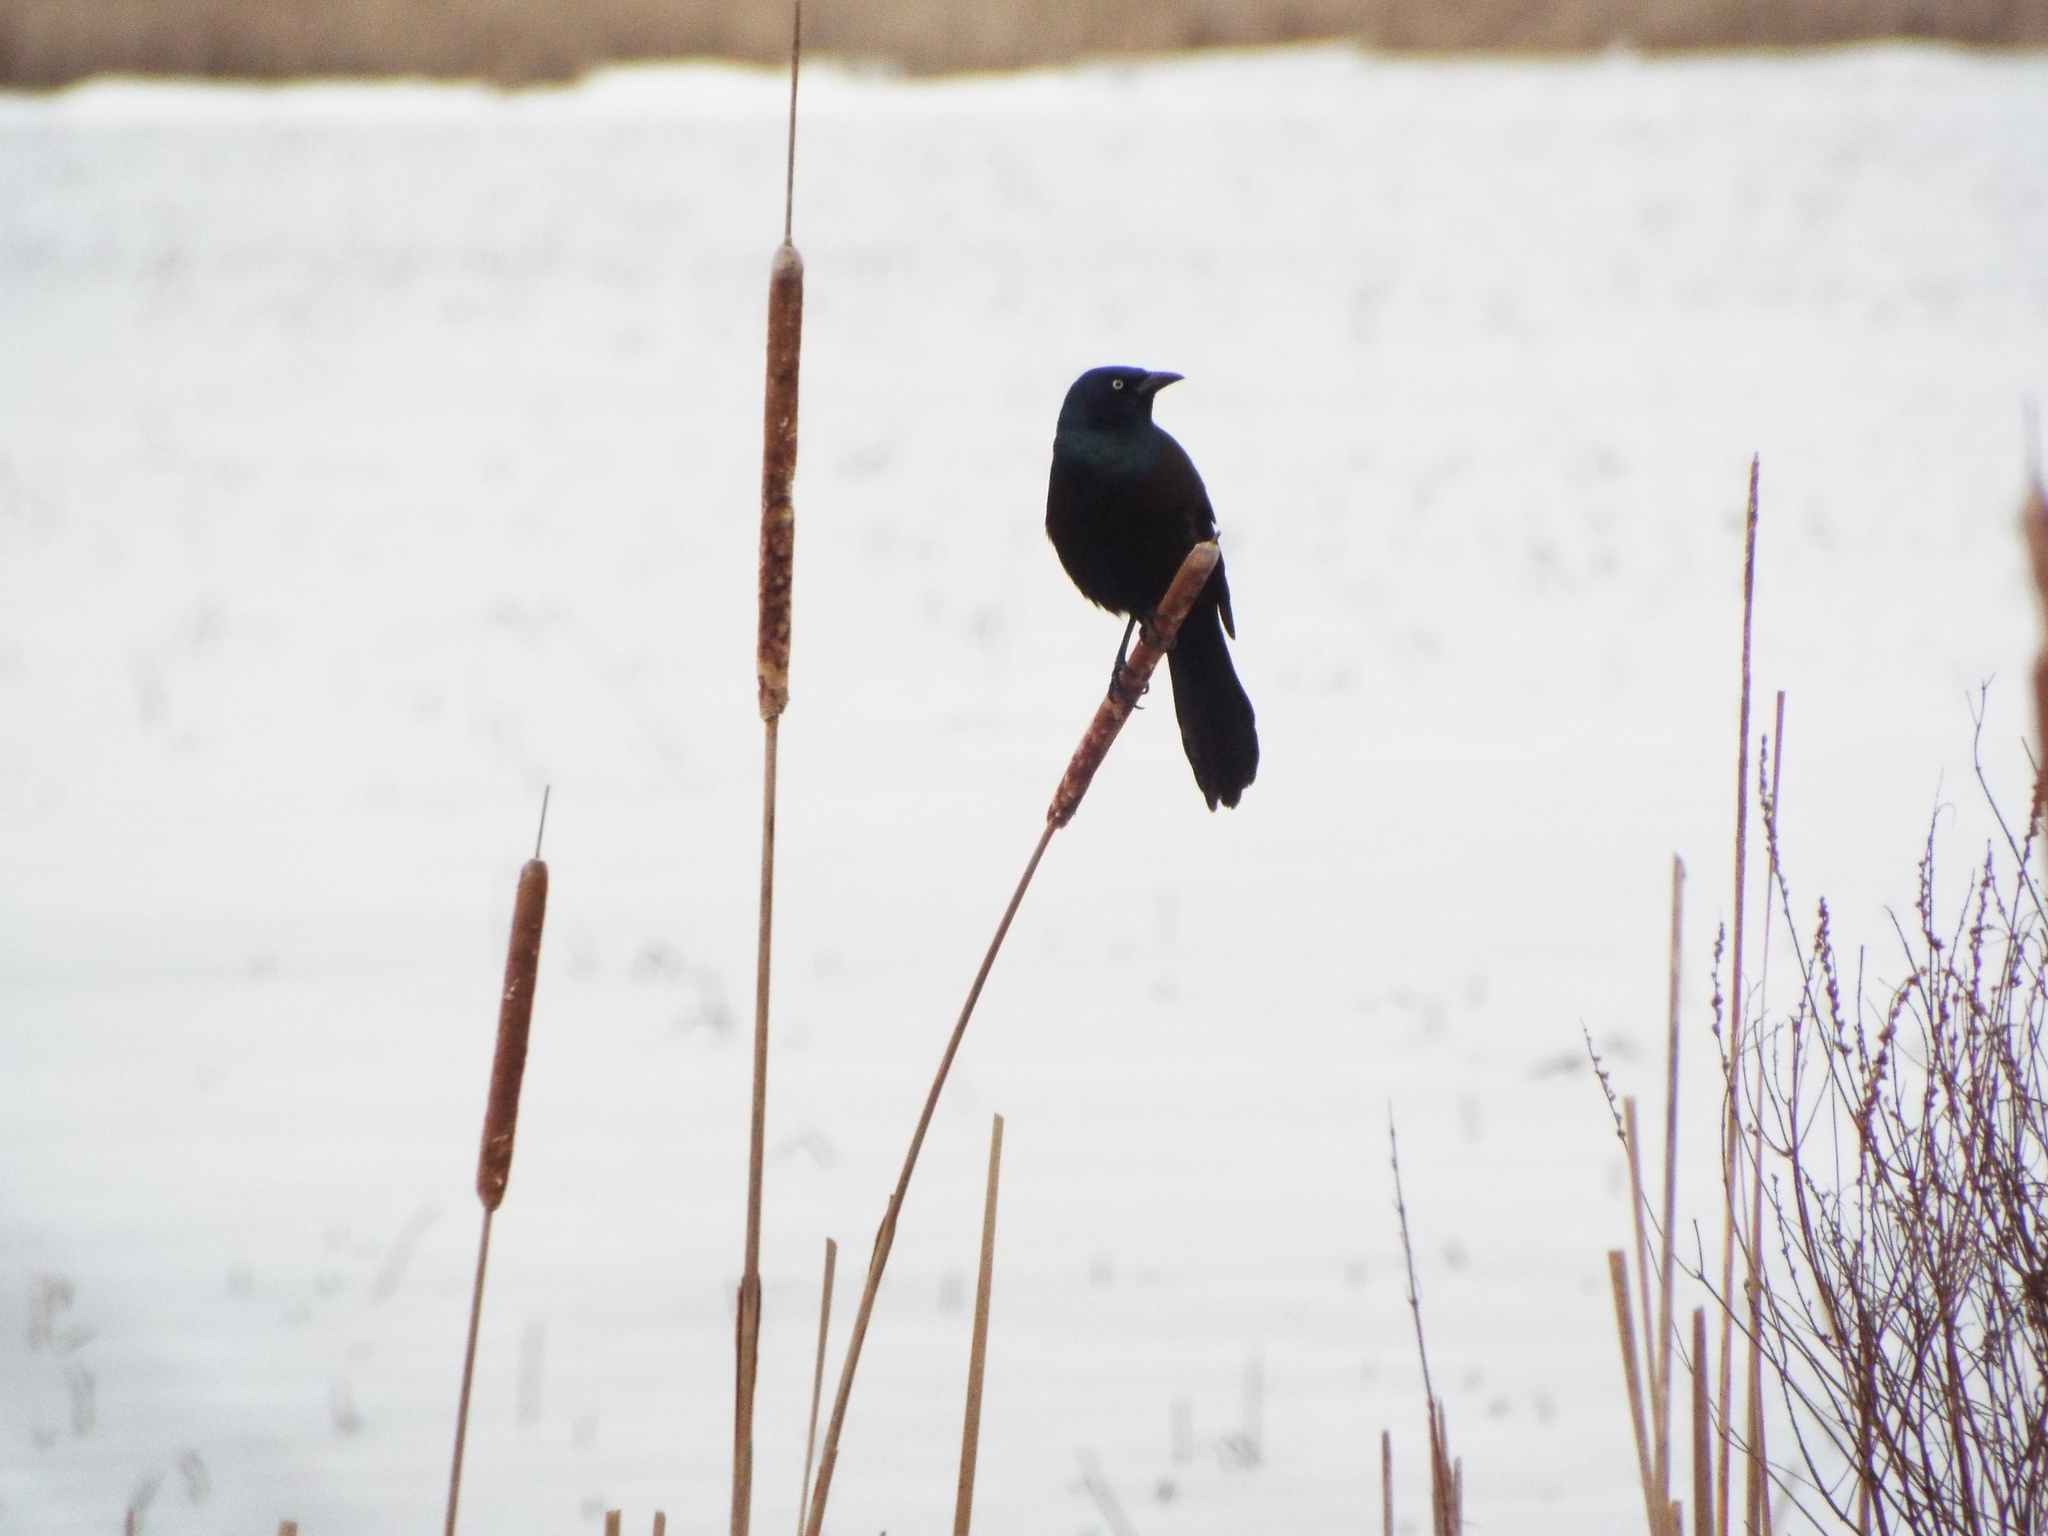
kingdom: Animalia
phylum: Chordata
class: Aves
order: Passeriformes
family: Icteridae
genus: Quiscalus
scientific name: Quiscalus quiscula
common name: Common grackle
